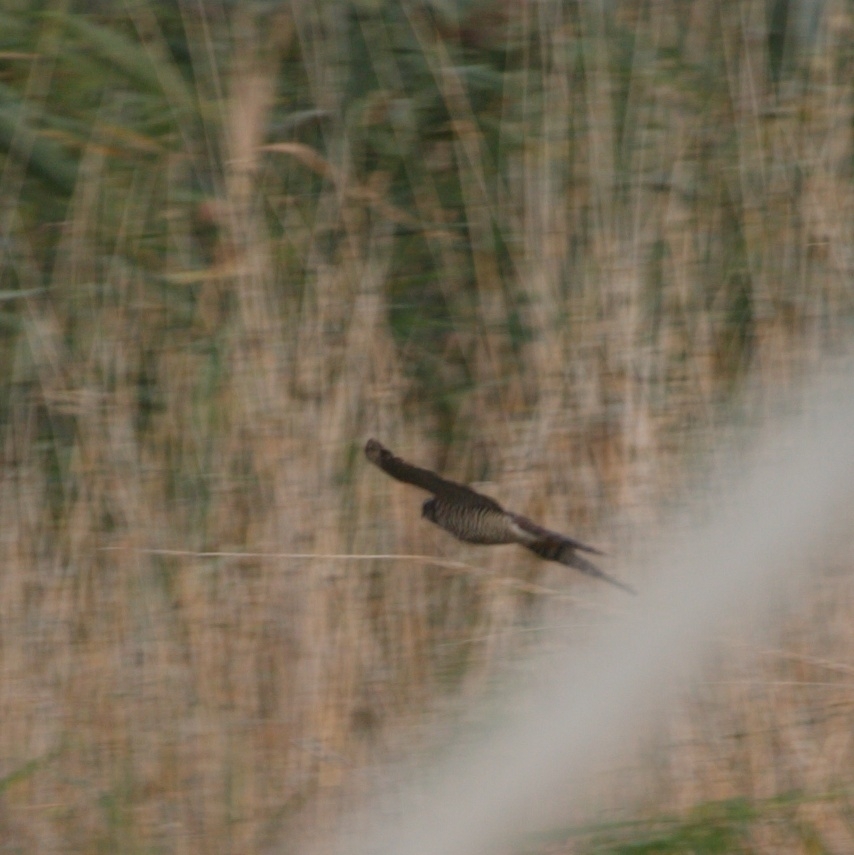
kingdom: Animalia
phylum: Chordata
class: Aves
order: Accipitriformes
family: Accipitridae
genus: Accipiter
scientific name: Accipiter nisus
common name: Eurasian sparrowhawk
